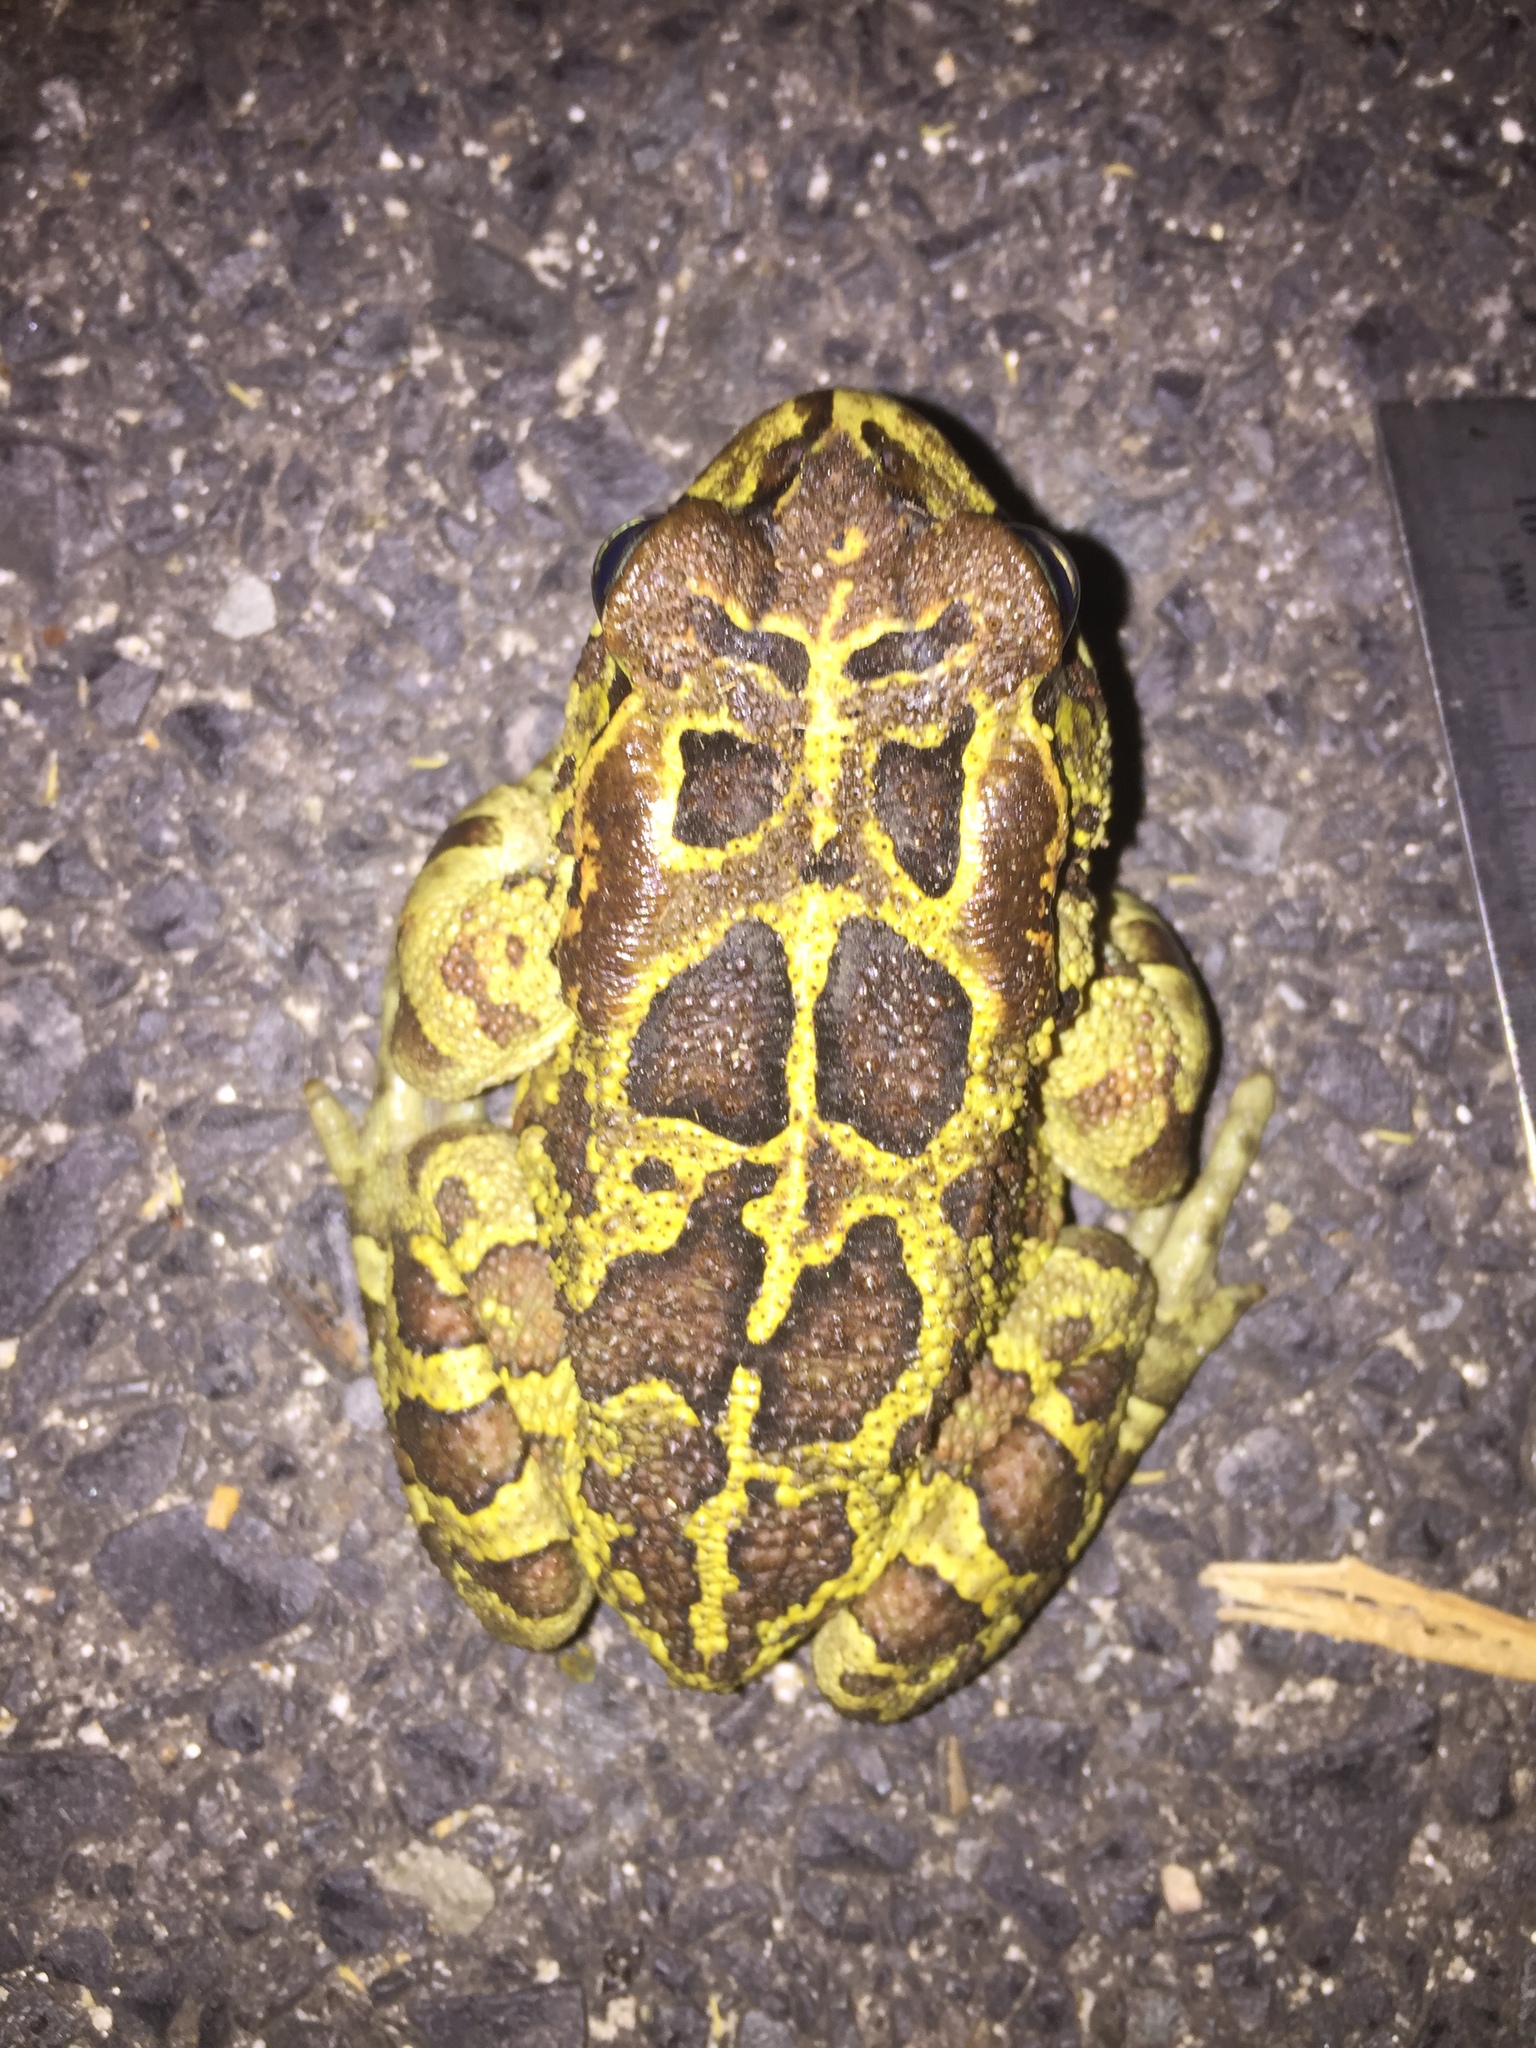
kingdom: Animalia
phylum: Chordata
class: Amphibia
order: Anura
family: Bufonidae
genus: Sclerophrys
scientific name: Sclerophrys pantherina
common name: Panther toad
